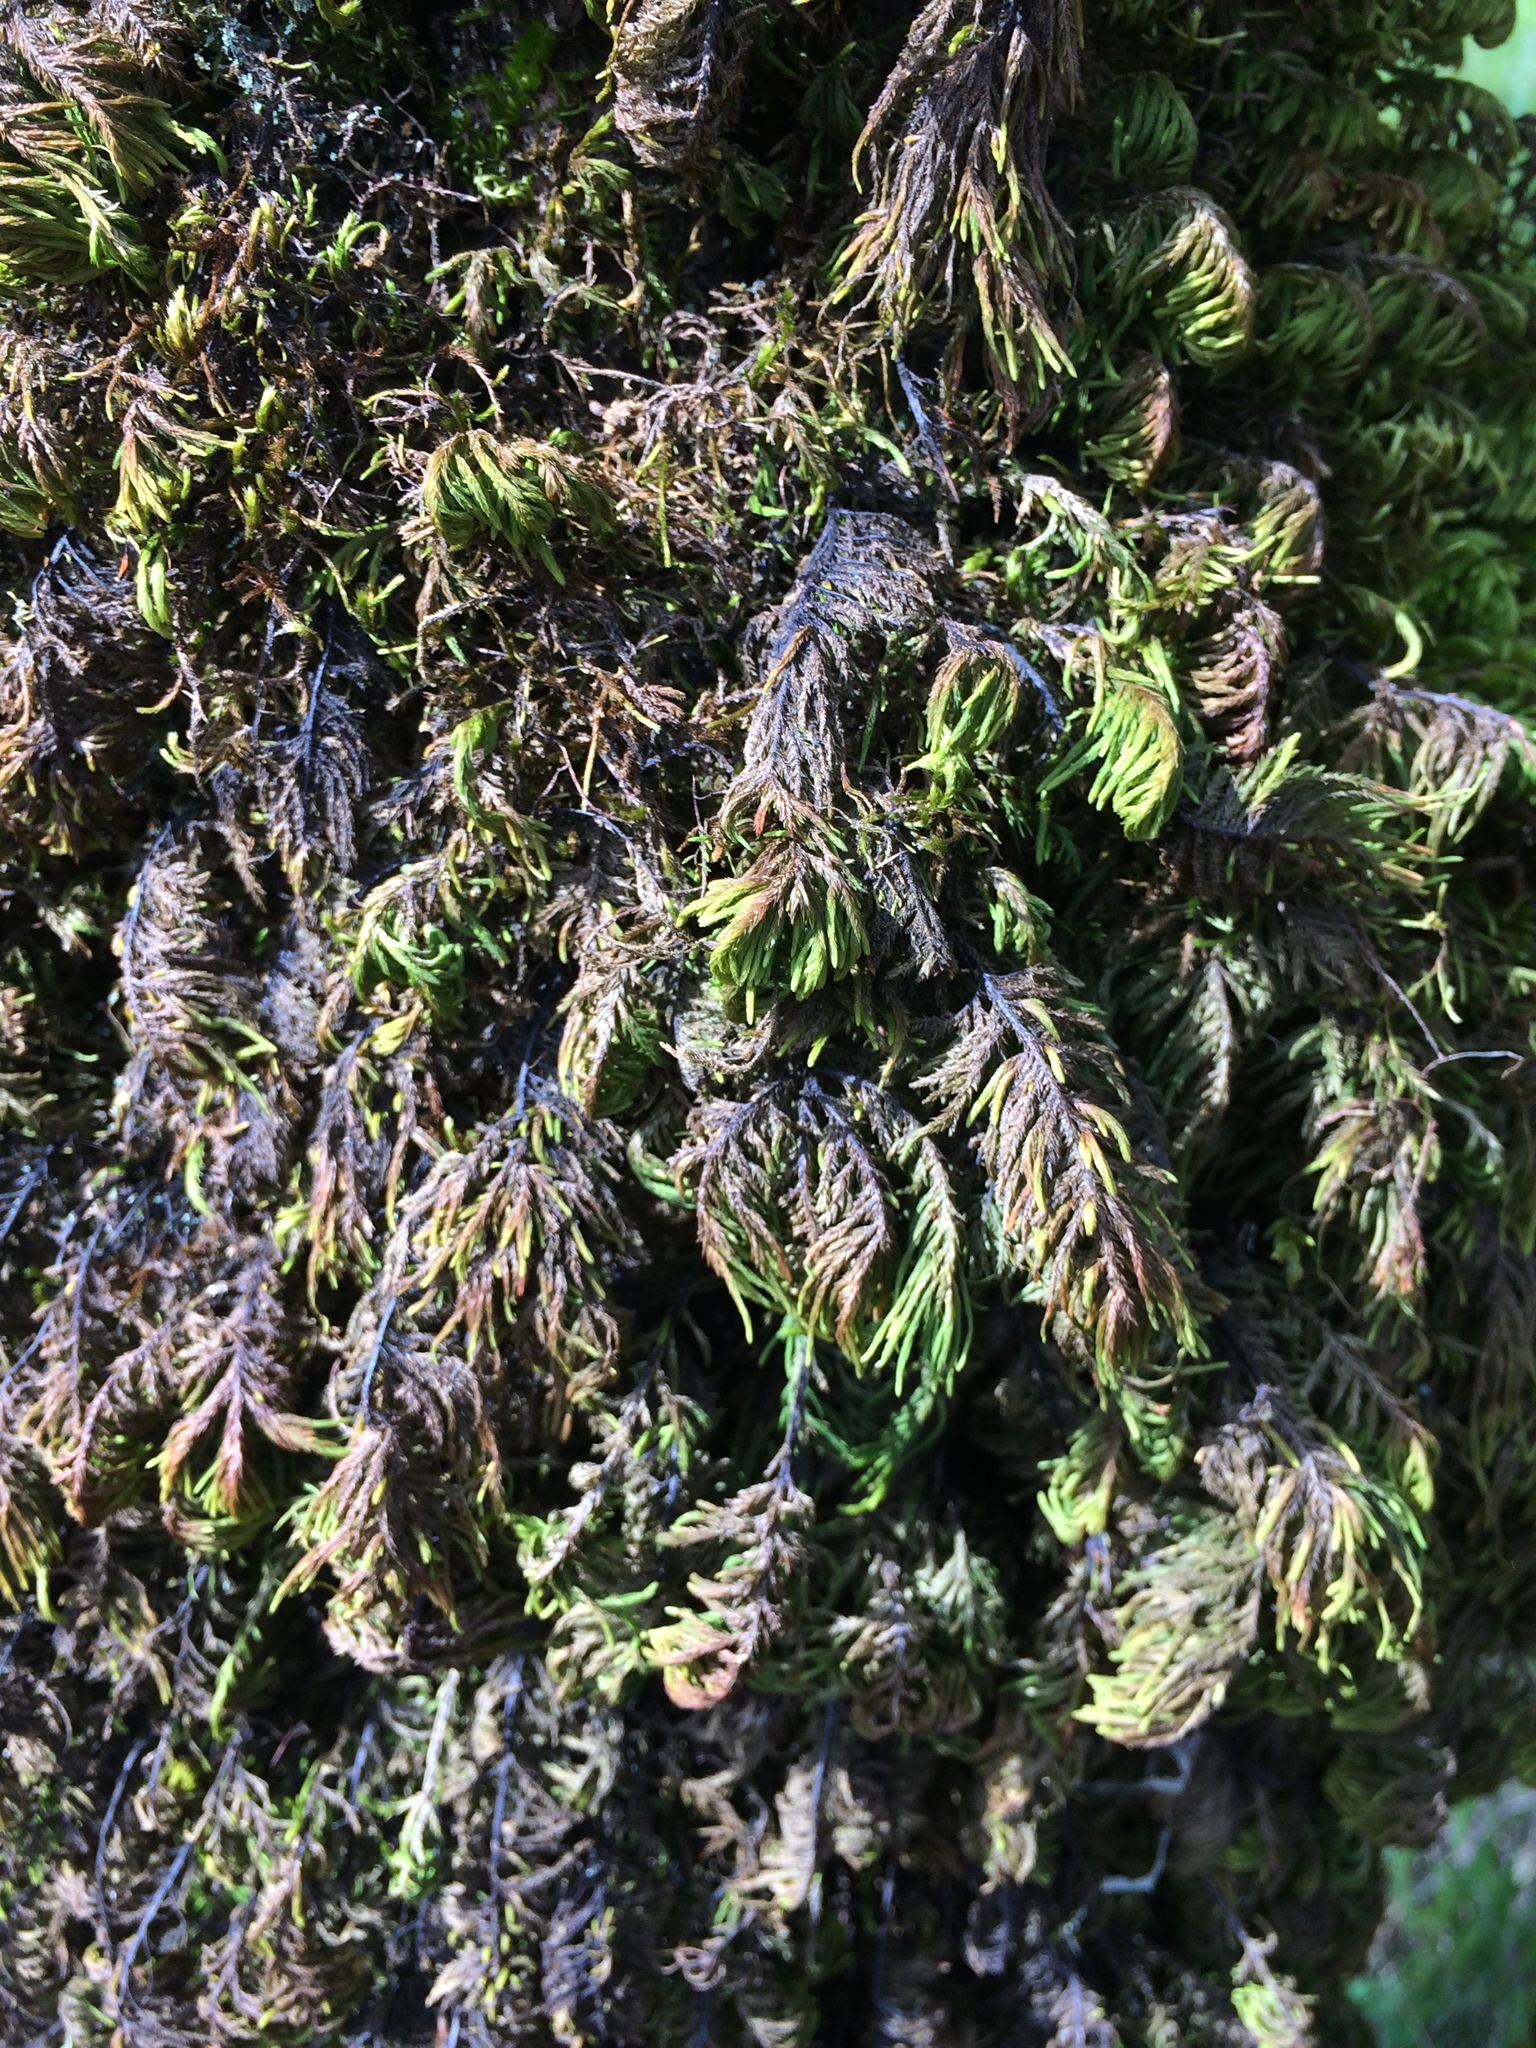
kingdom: Plantae
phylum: Bryophyta
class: Bryopsida
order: Hypnales
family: Cryphaeaceae
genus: Dendroalsia
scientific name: Dendroalsia abietina
